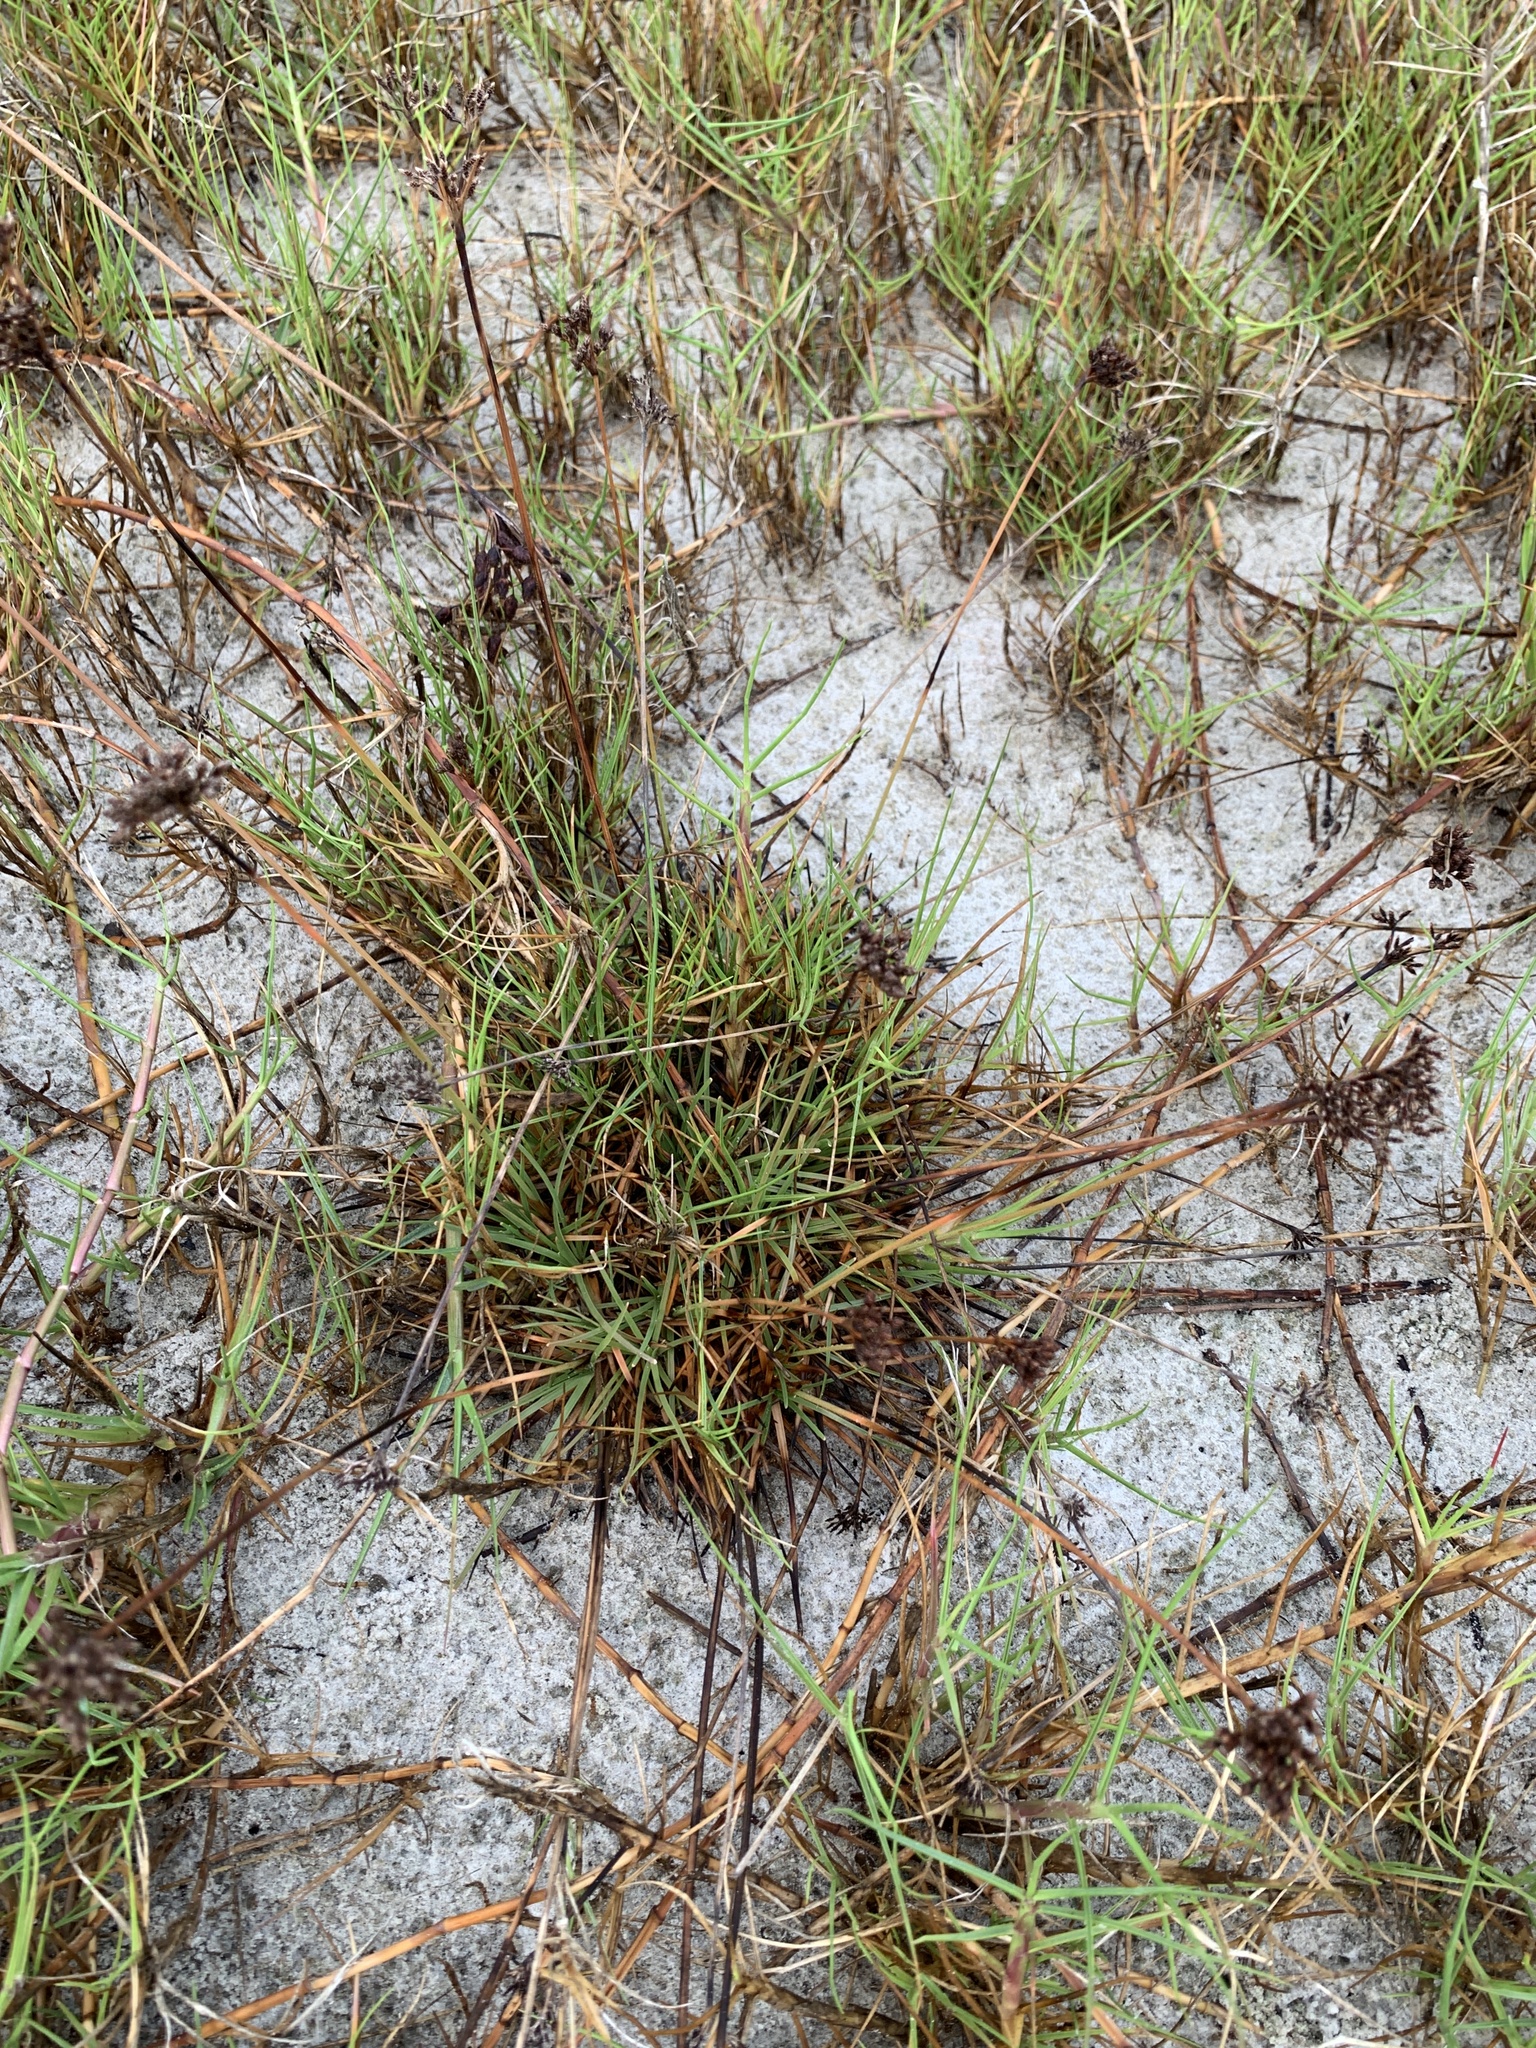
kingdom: Plantae
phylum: Tracheophyta
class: Liliopsida
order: Poales
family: Cyperaceae
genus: Fimbristylis
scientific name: Fimbristylis cymosa
